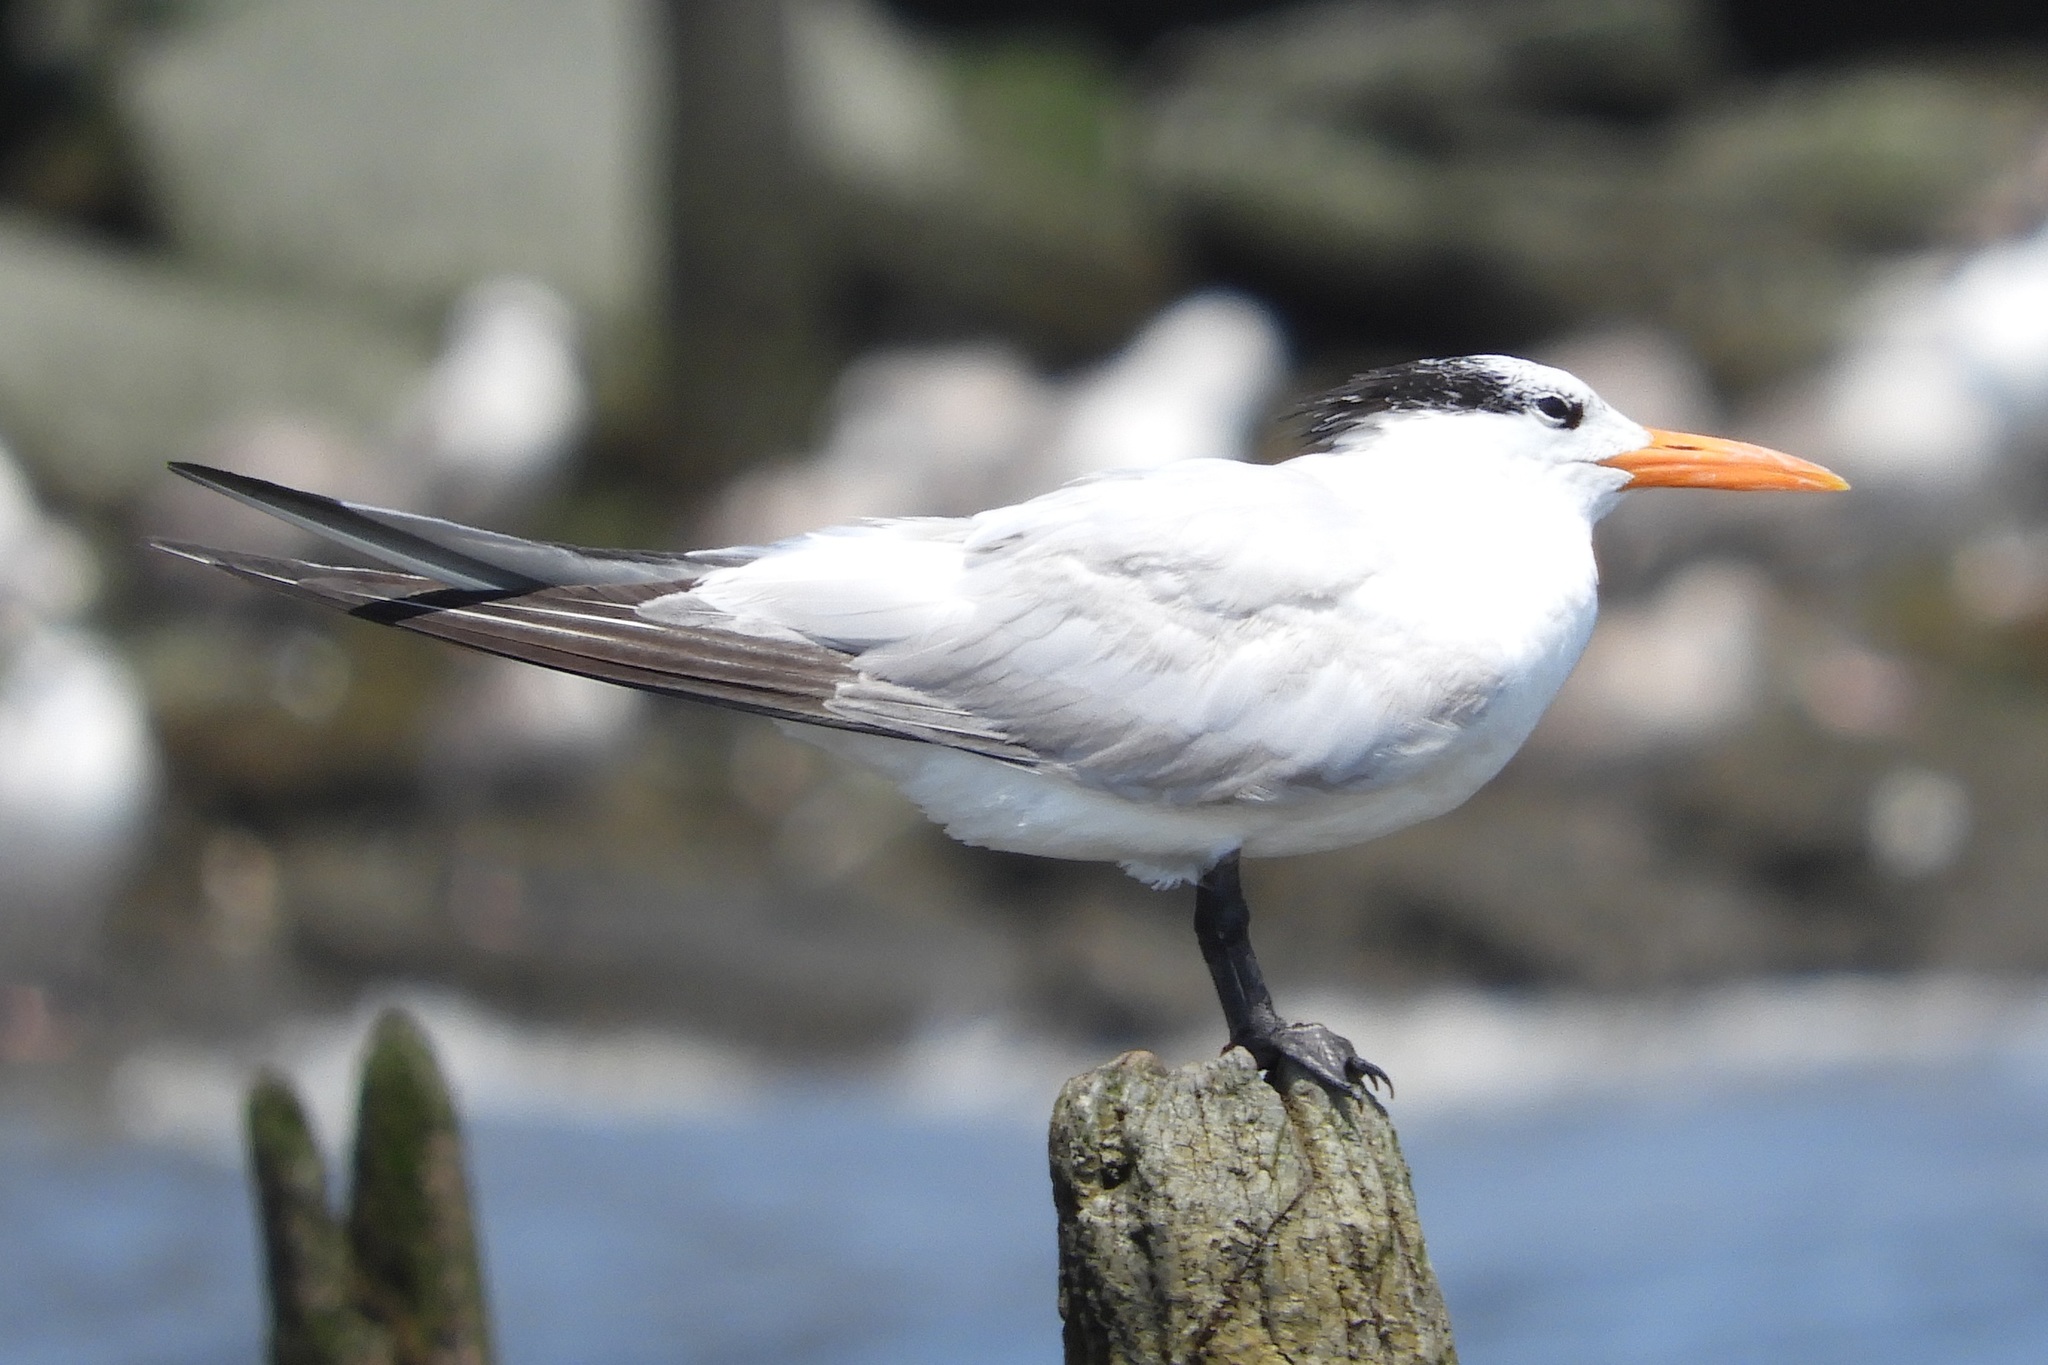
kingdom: Animalia
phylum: Chordata
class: Aves
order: Charadriiformes
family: Laridae
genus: Thalasseus
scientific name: Thalasseus maximus
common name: Royal tern
